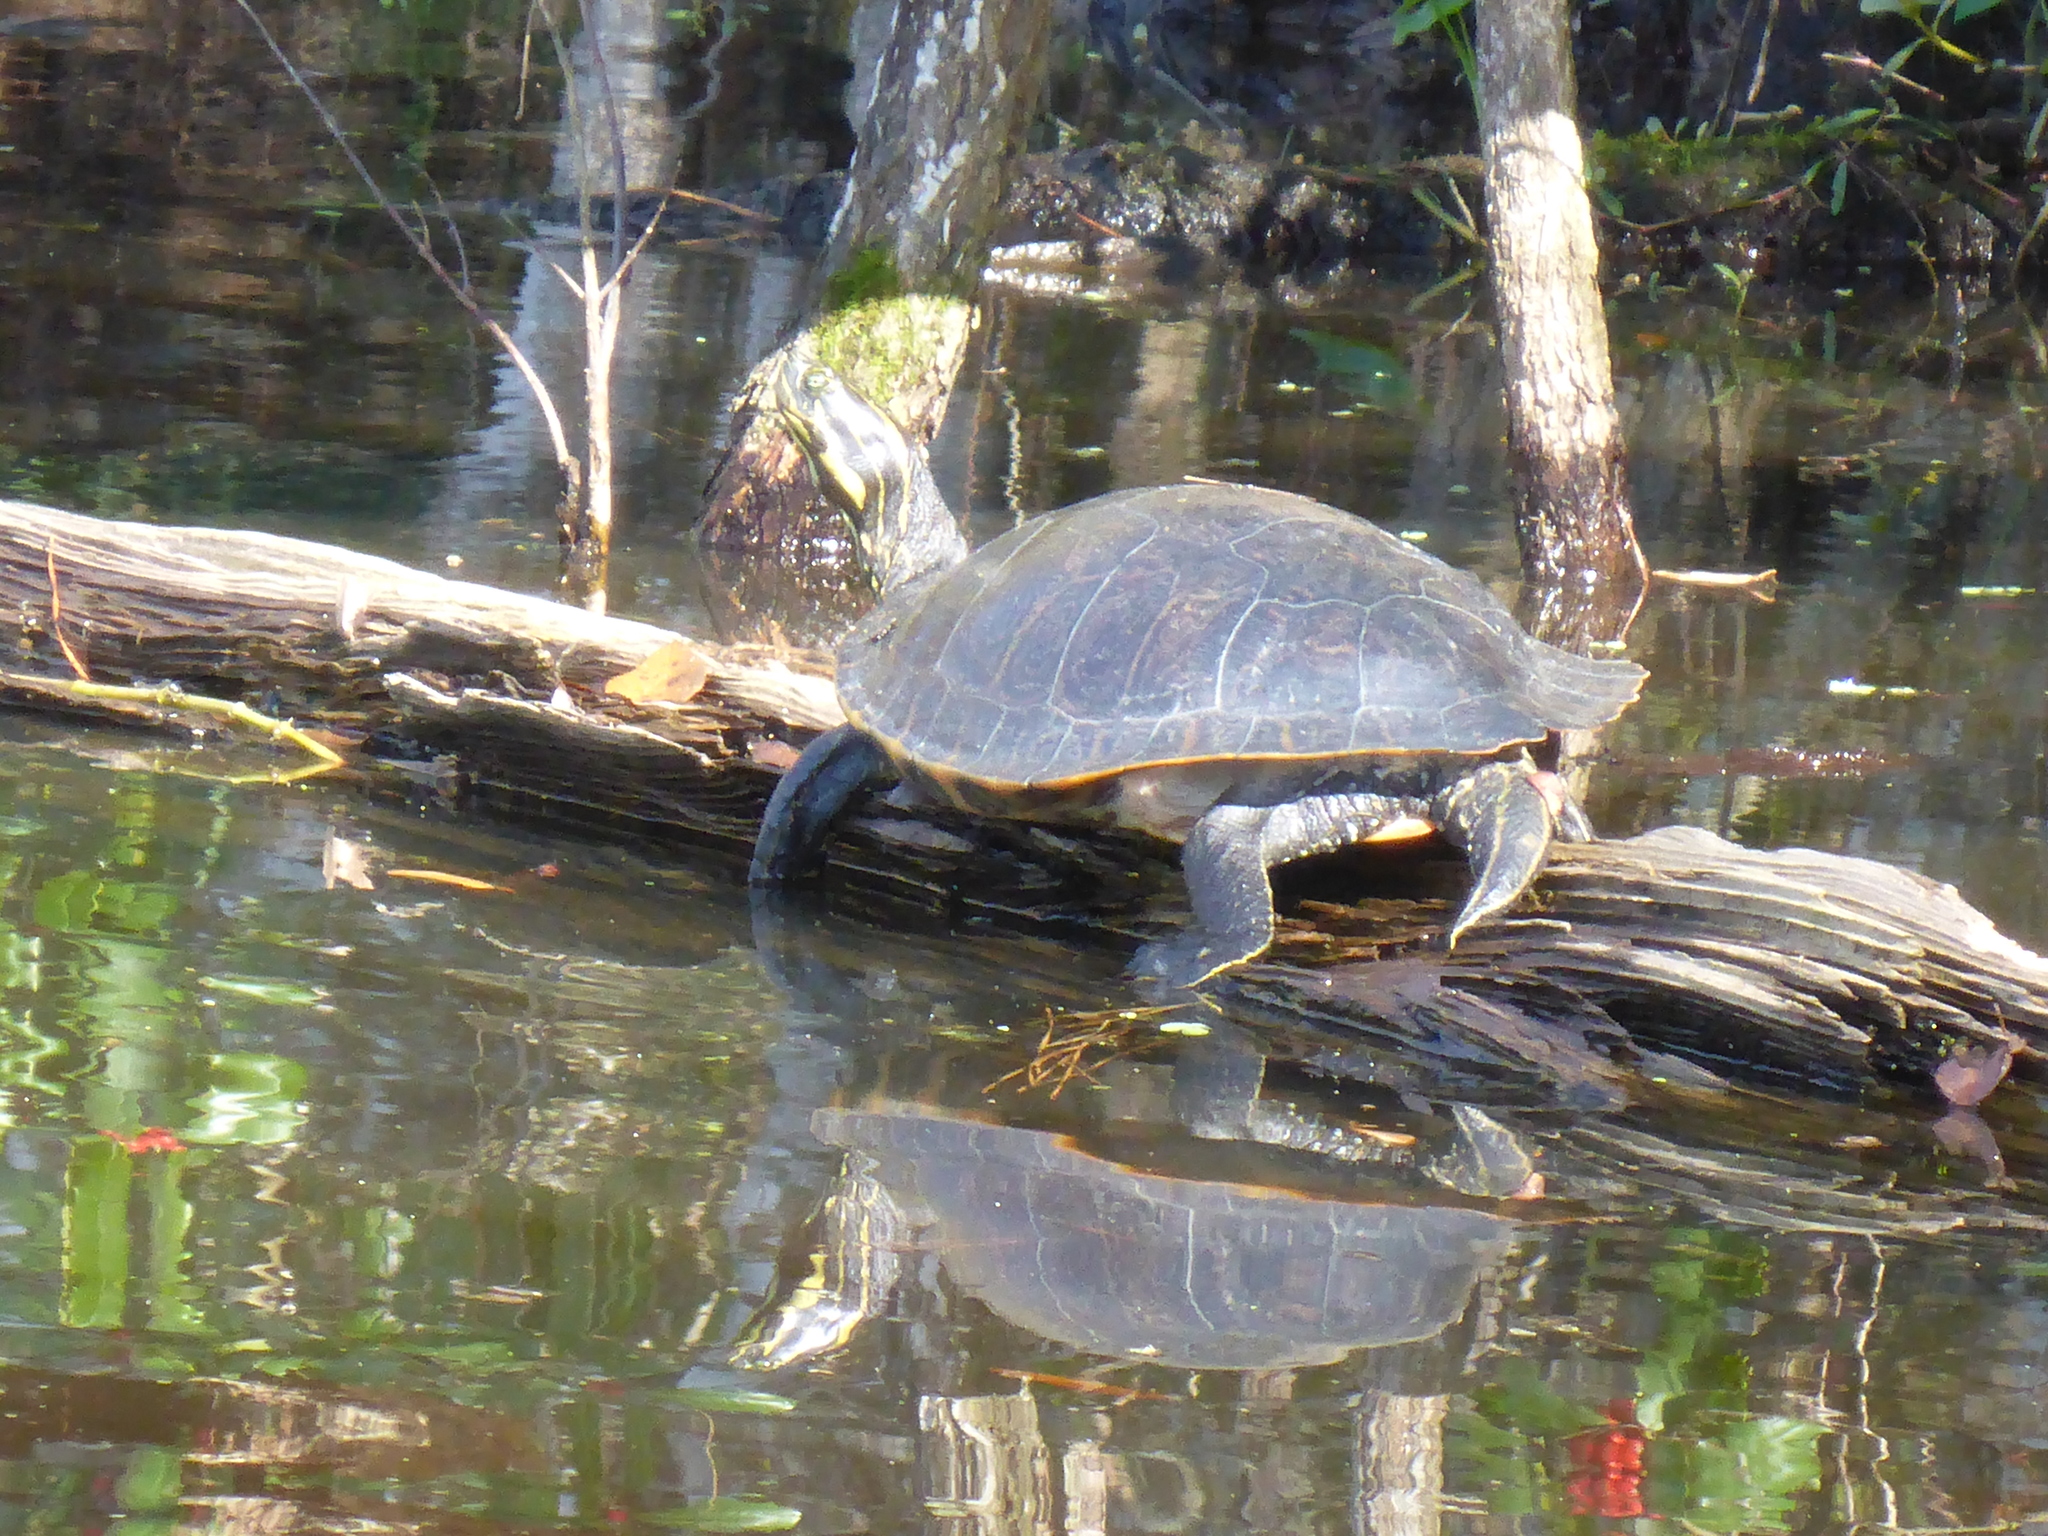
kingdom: Animalia
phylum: Chordata
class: Testudines
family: Emydidae
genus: Pseudemys
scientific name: Pseudemys concinna
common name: Eastern river cooter
